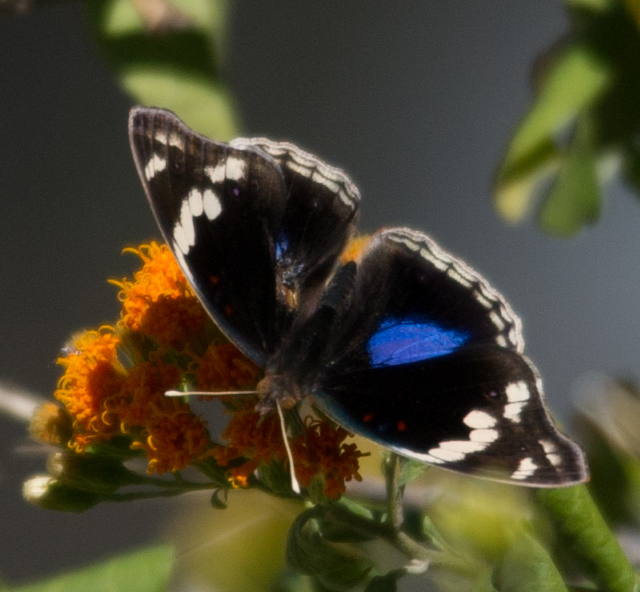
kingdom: Animalia
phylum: Arthropoda
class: Insecta
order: Lepidoptera
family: Nymphalidae
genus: Junonia
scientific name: Junonia oenone
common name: Dark blue pansy
